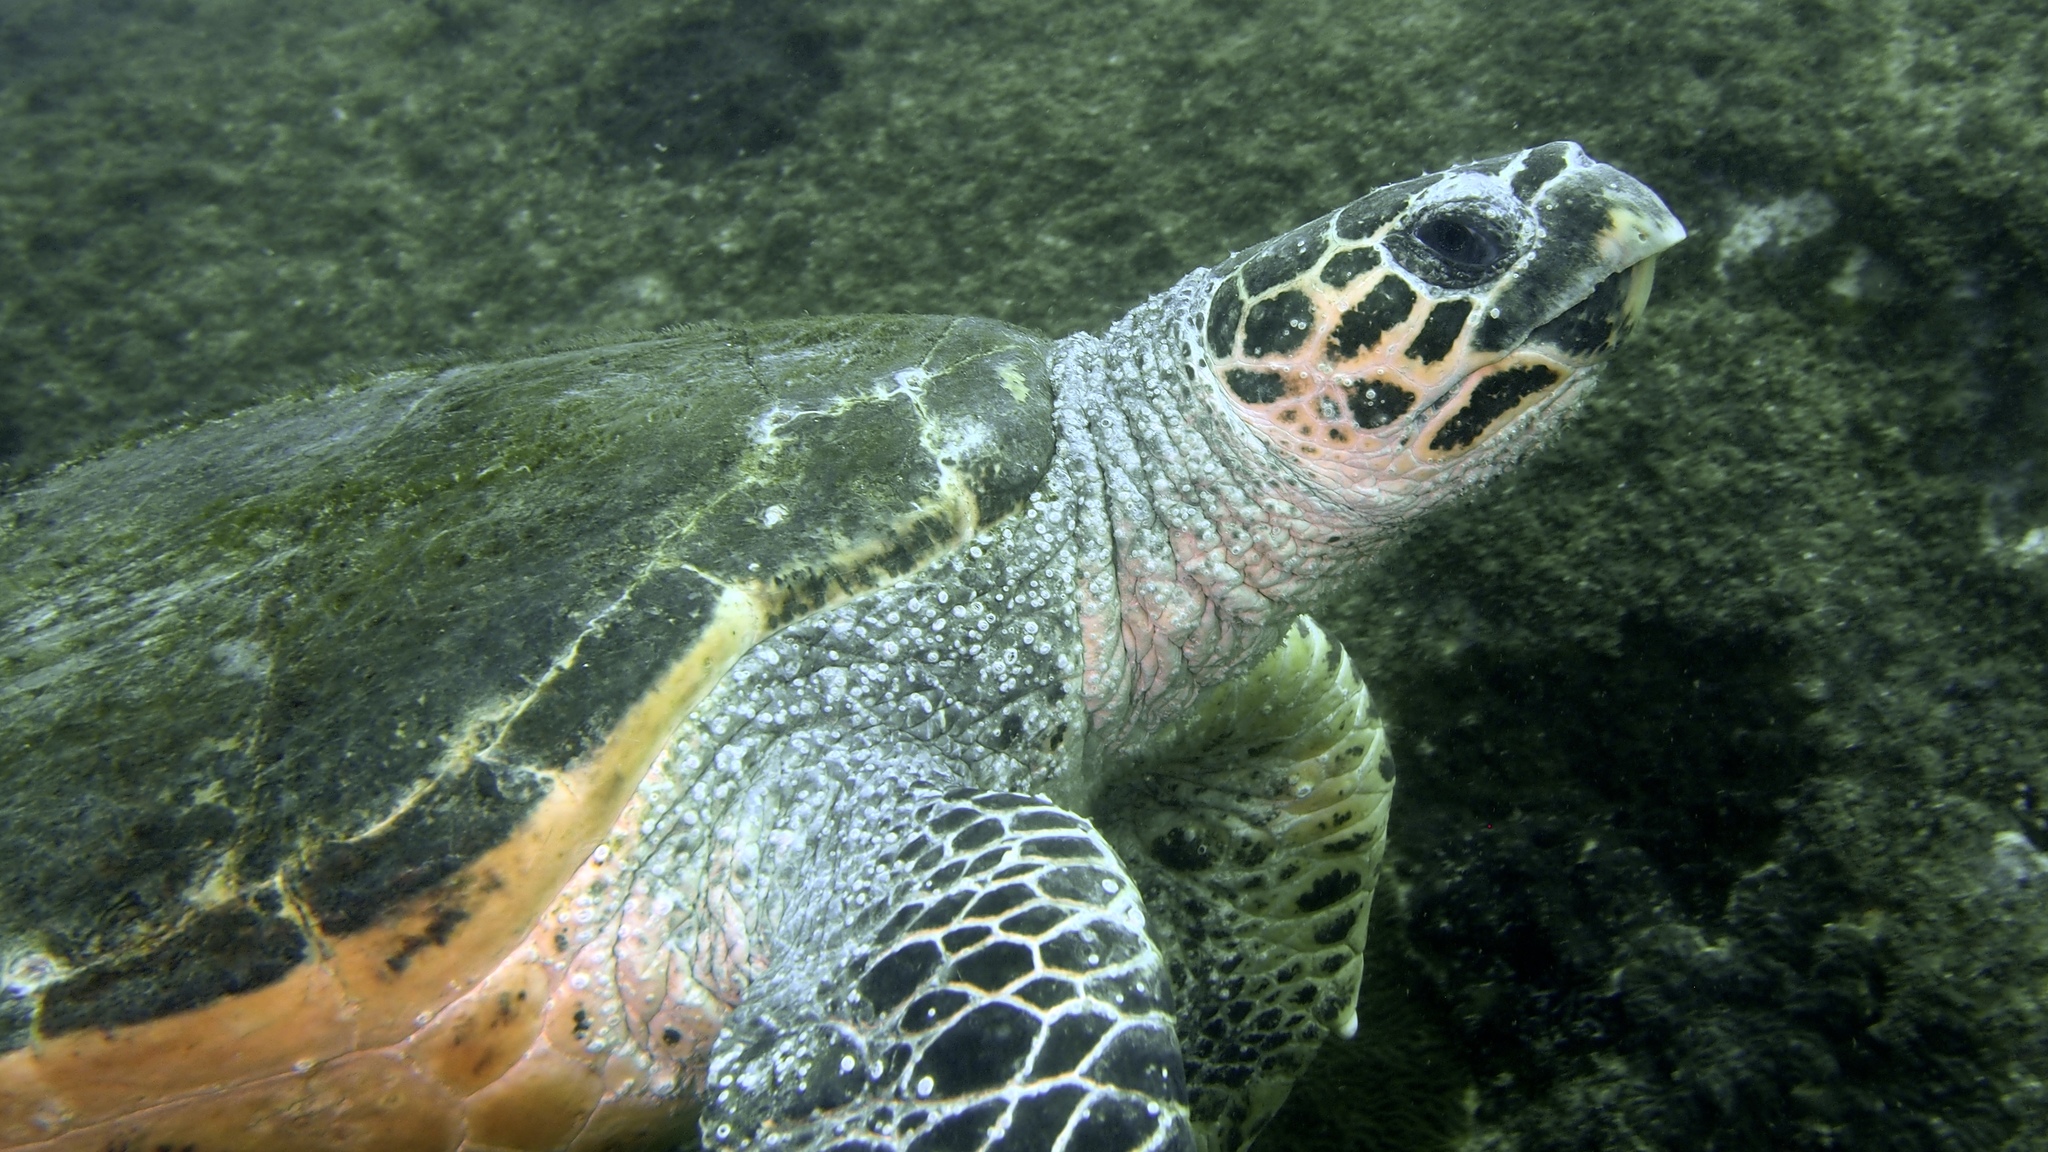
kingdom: Animalia
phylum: Chordata
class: Testudines
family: Cheloniidae
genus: Eretmochelys
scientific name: Eretmochelys imbricata
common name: Hawksbill turtle
